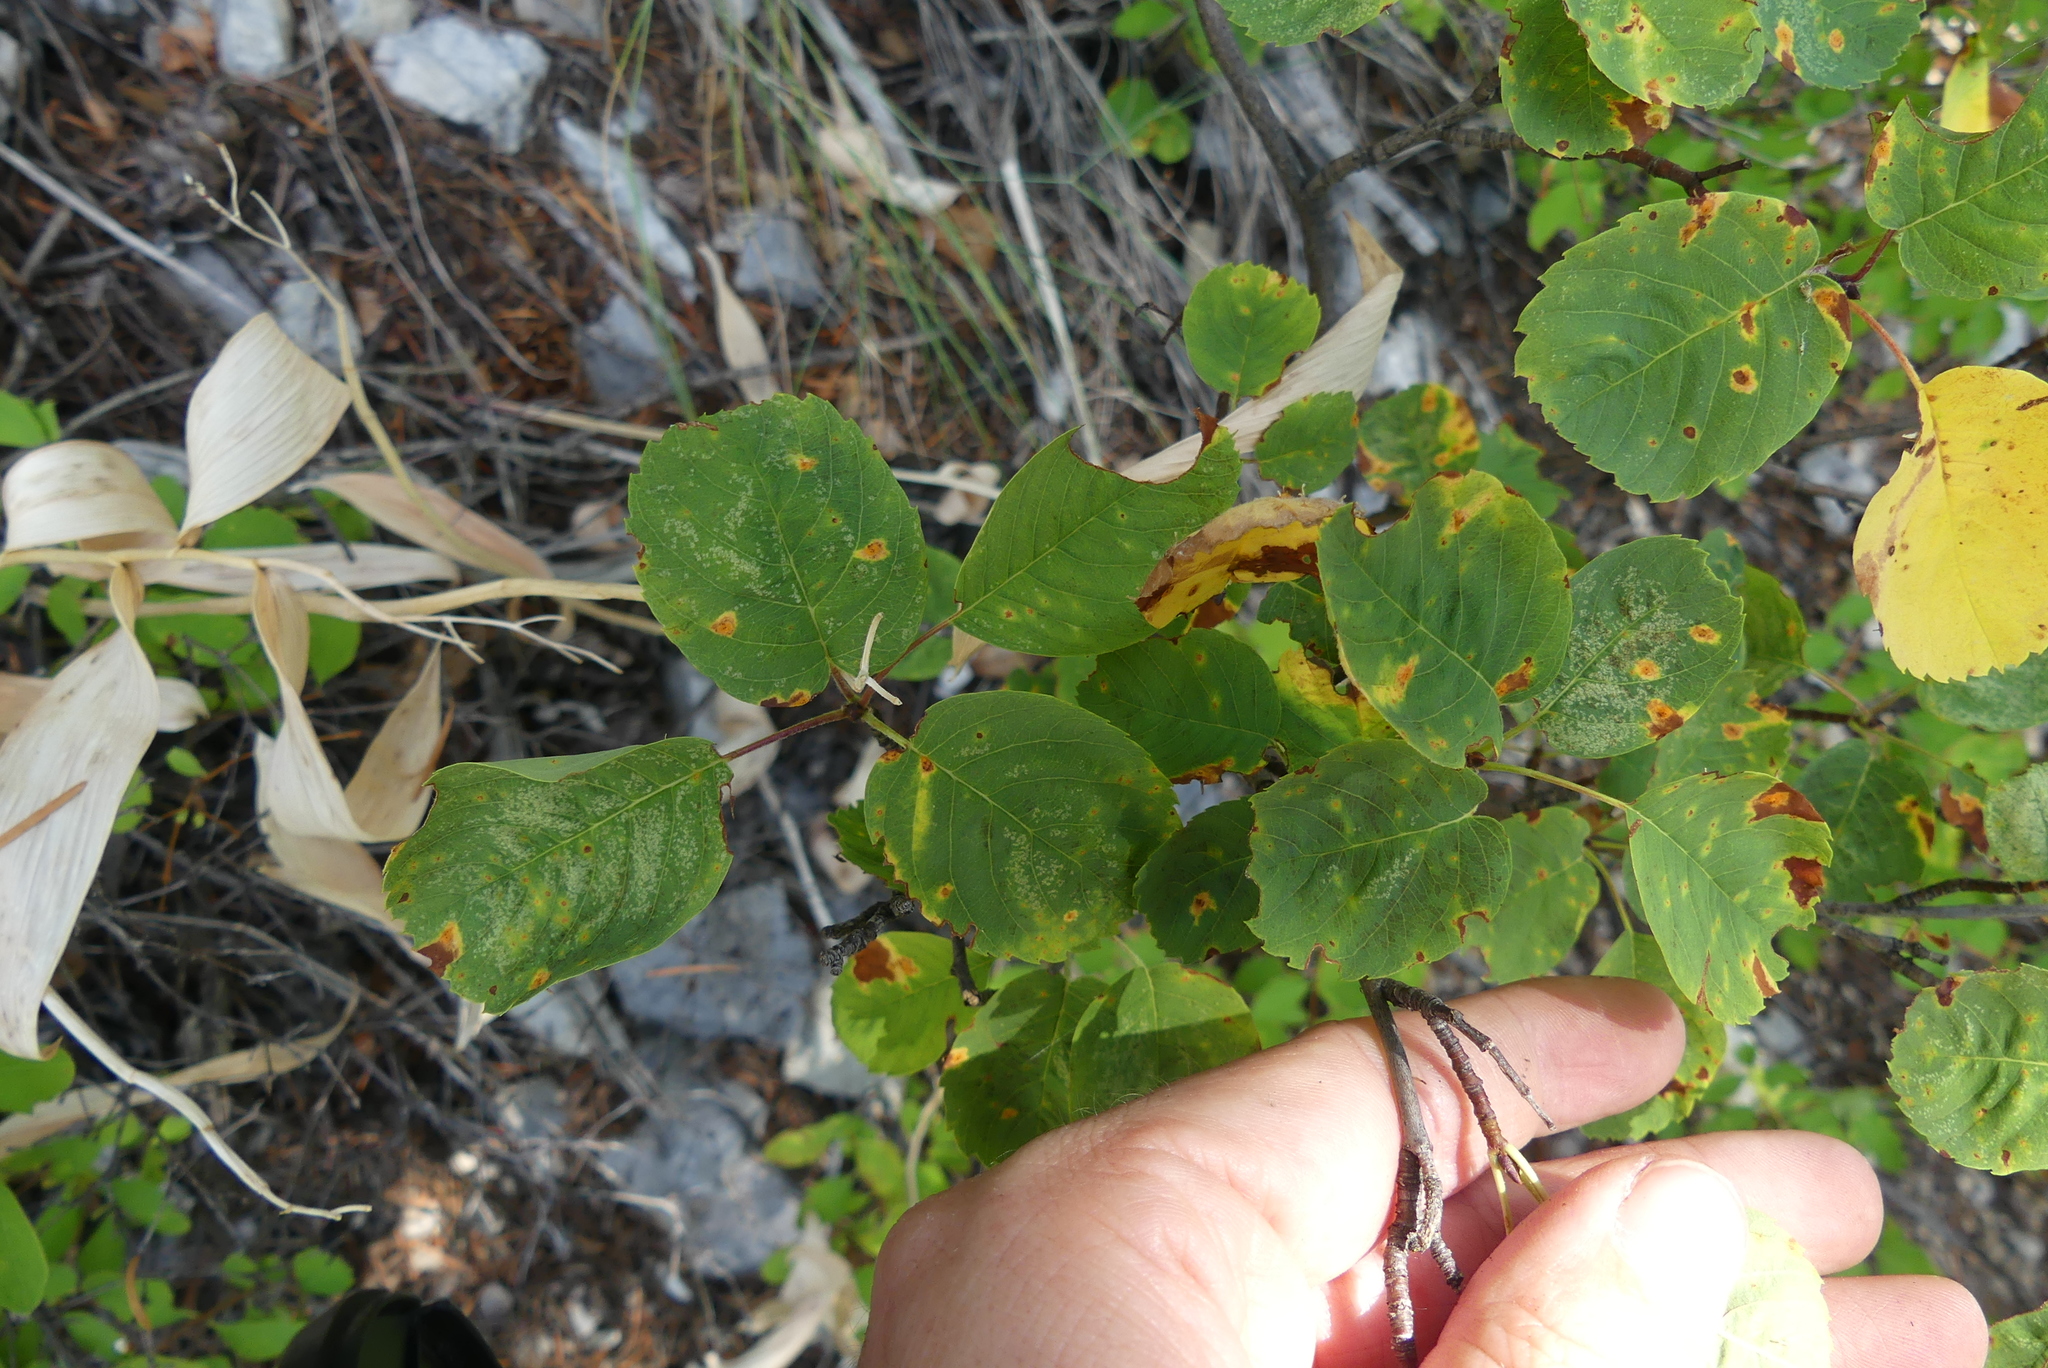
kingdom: Plantae
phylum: Tracheophyta
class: Magnoliopsida
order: Rosales
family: Rosaceae
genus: Amelanchier
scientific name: Amelanchier alnifolia
